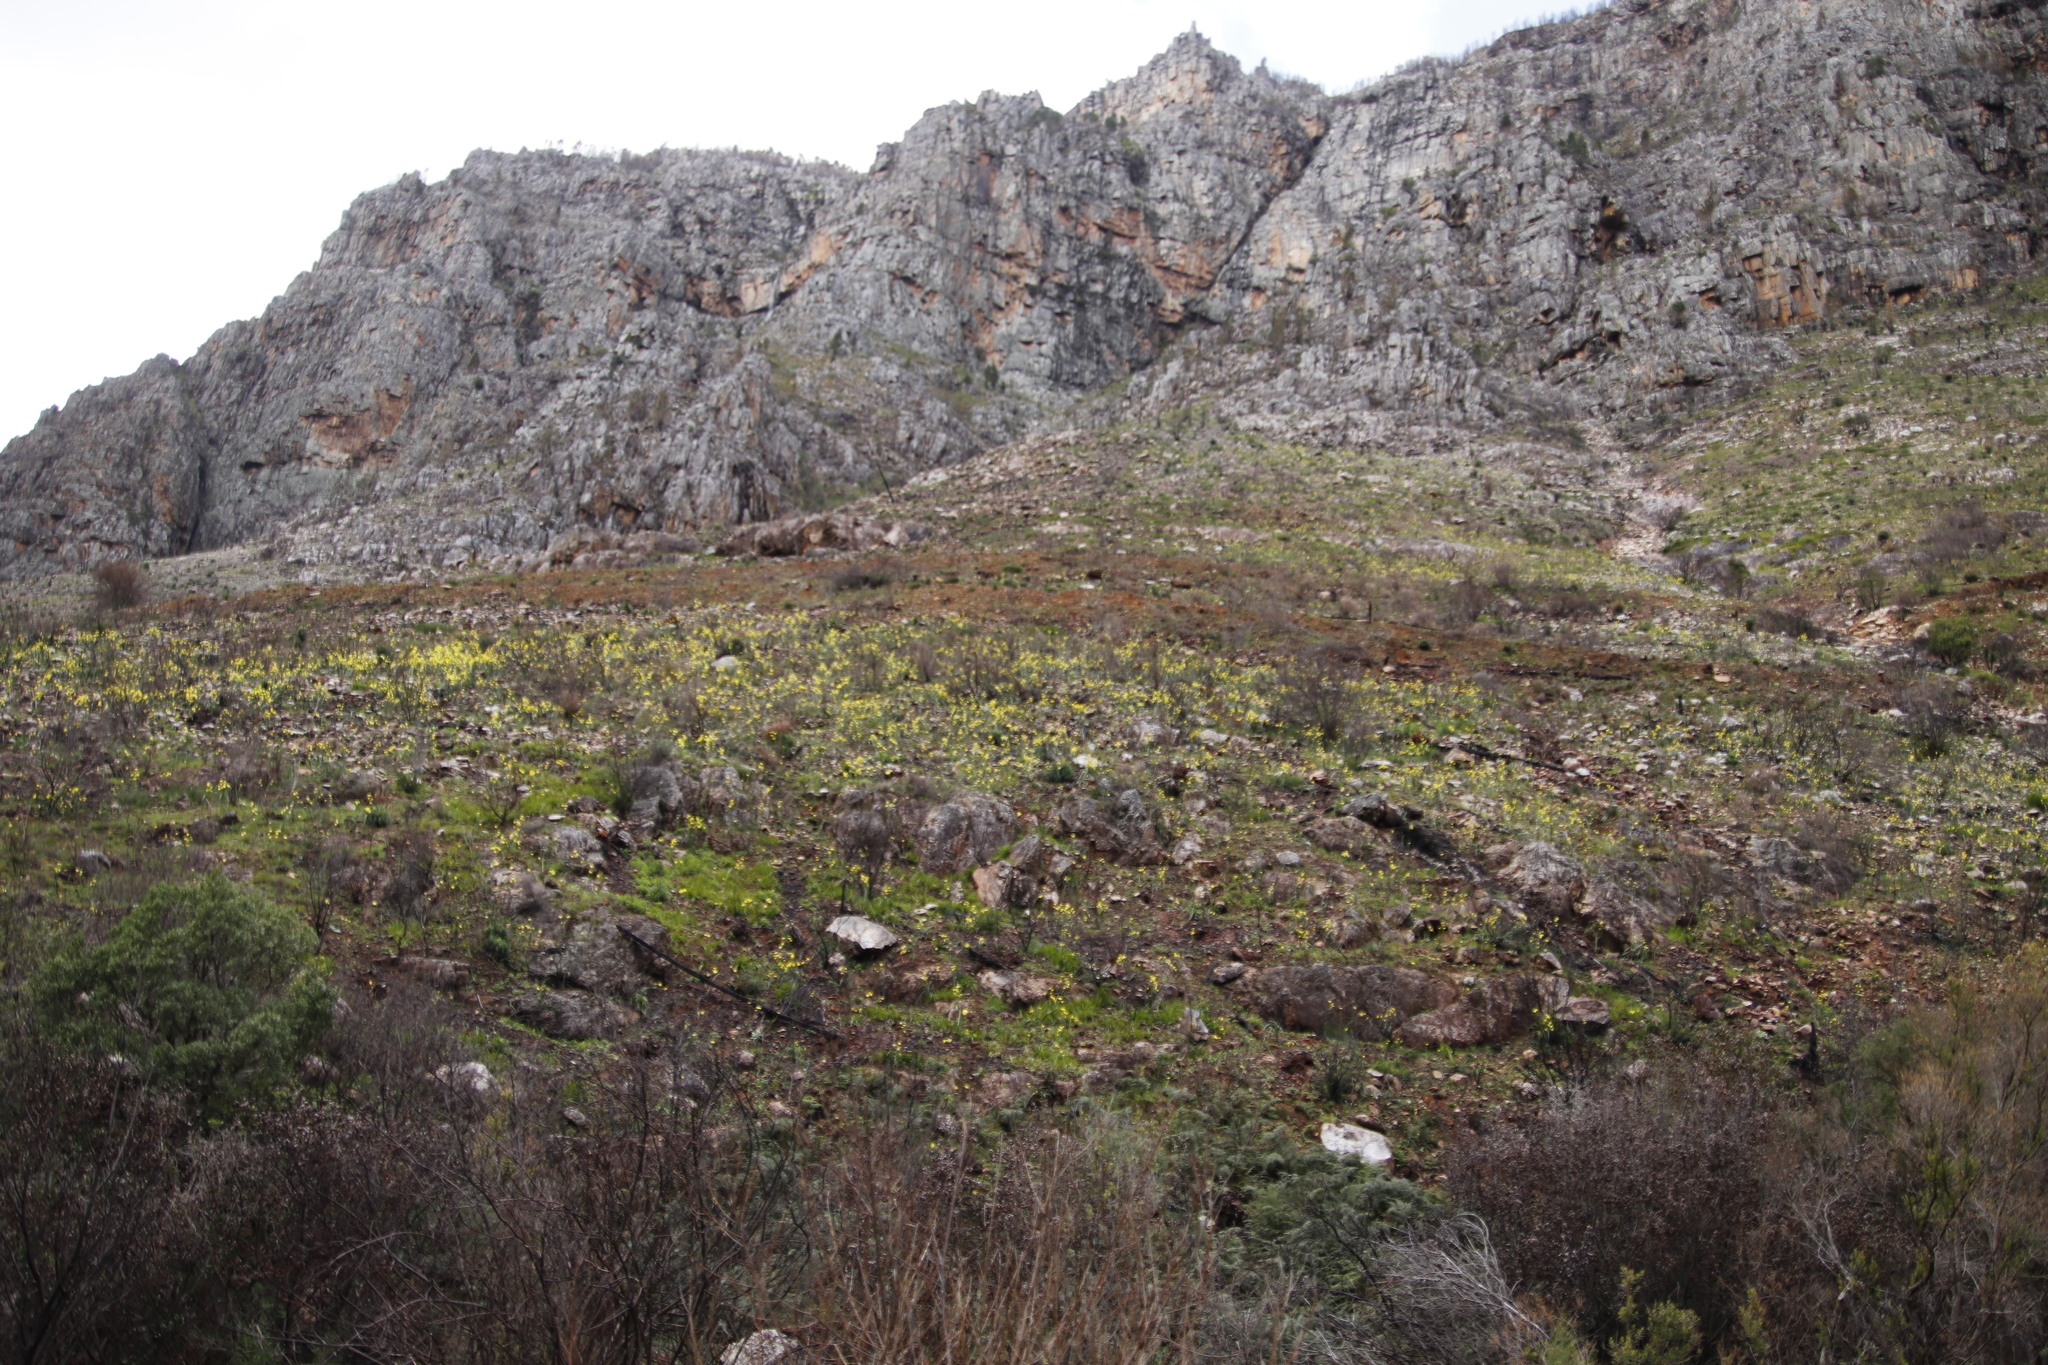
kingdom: Plantae
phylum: Tracheophyta
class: Liliopsida
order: Asparagales
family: Iridaceae
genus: Moraea
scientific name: Moraea ochroleuca
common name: Red tulp
